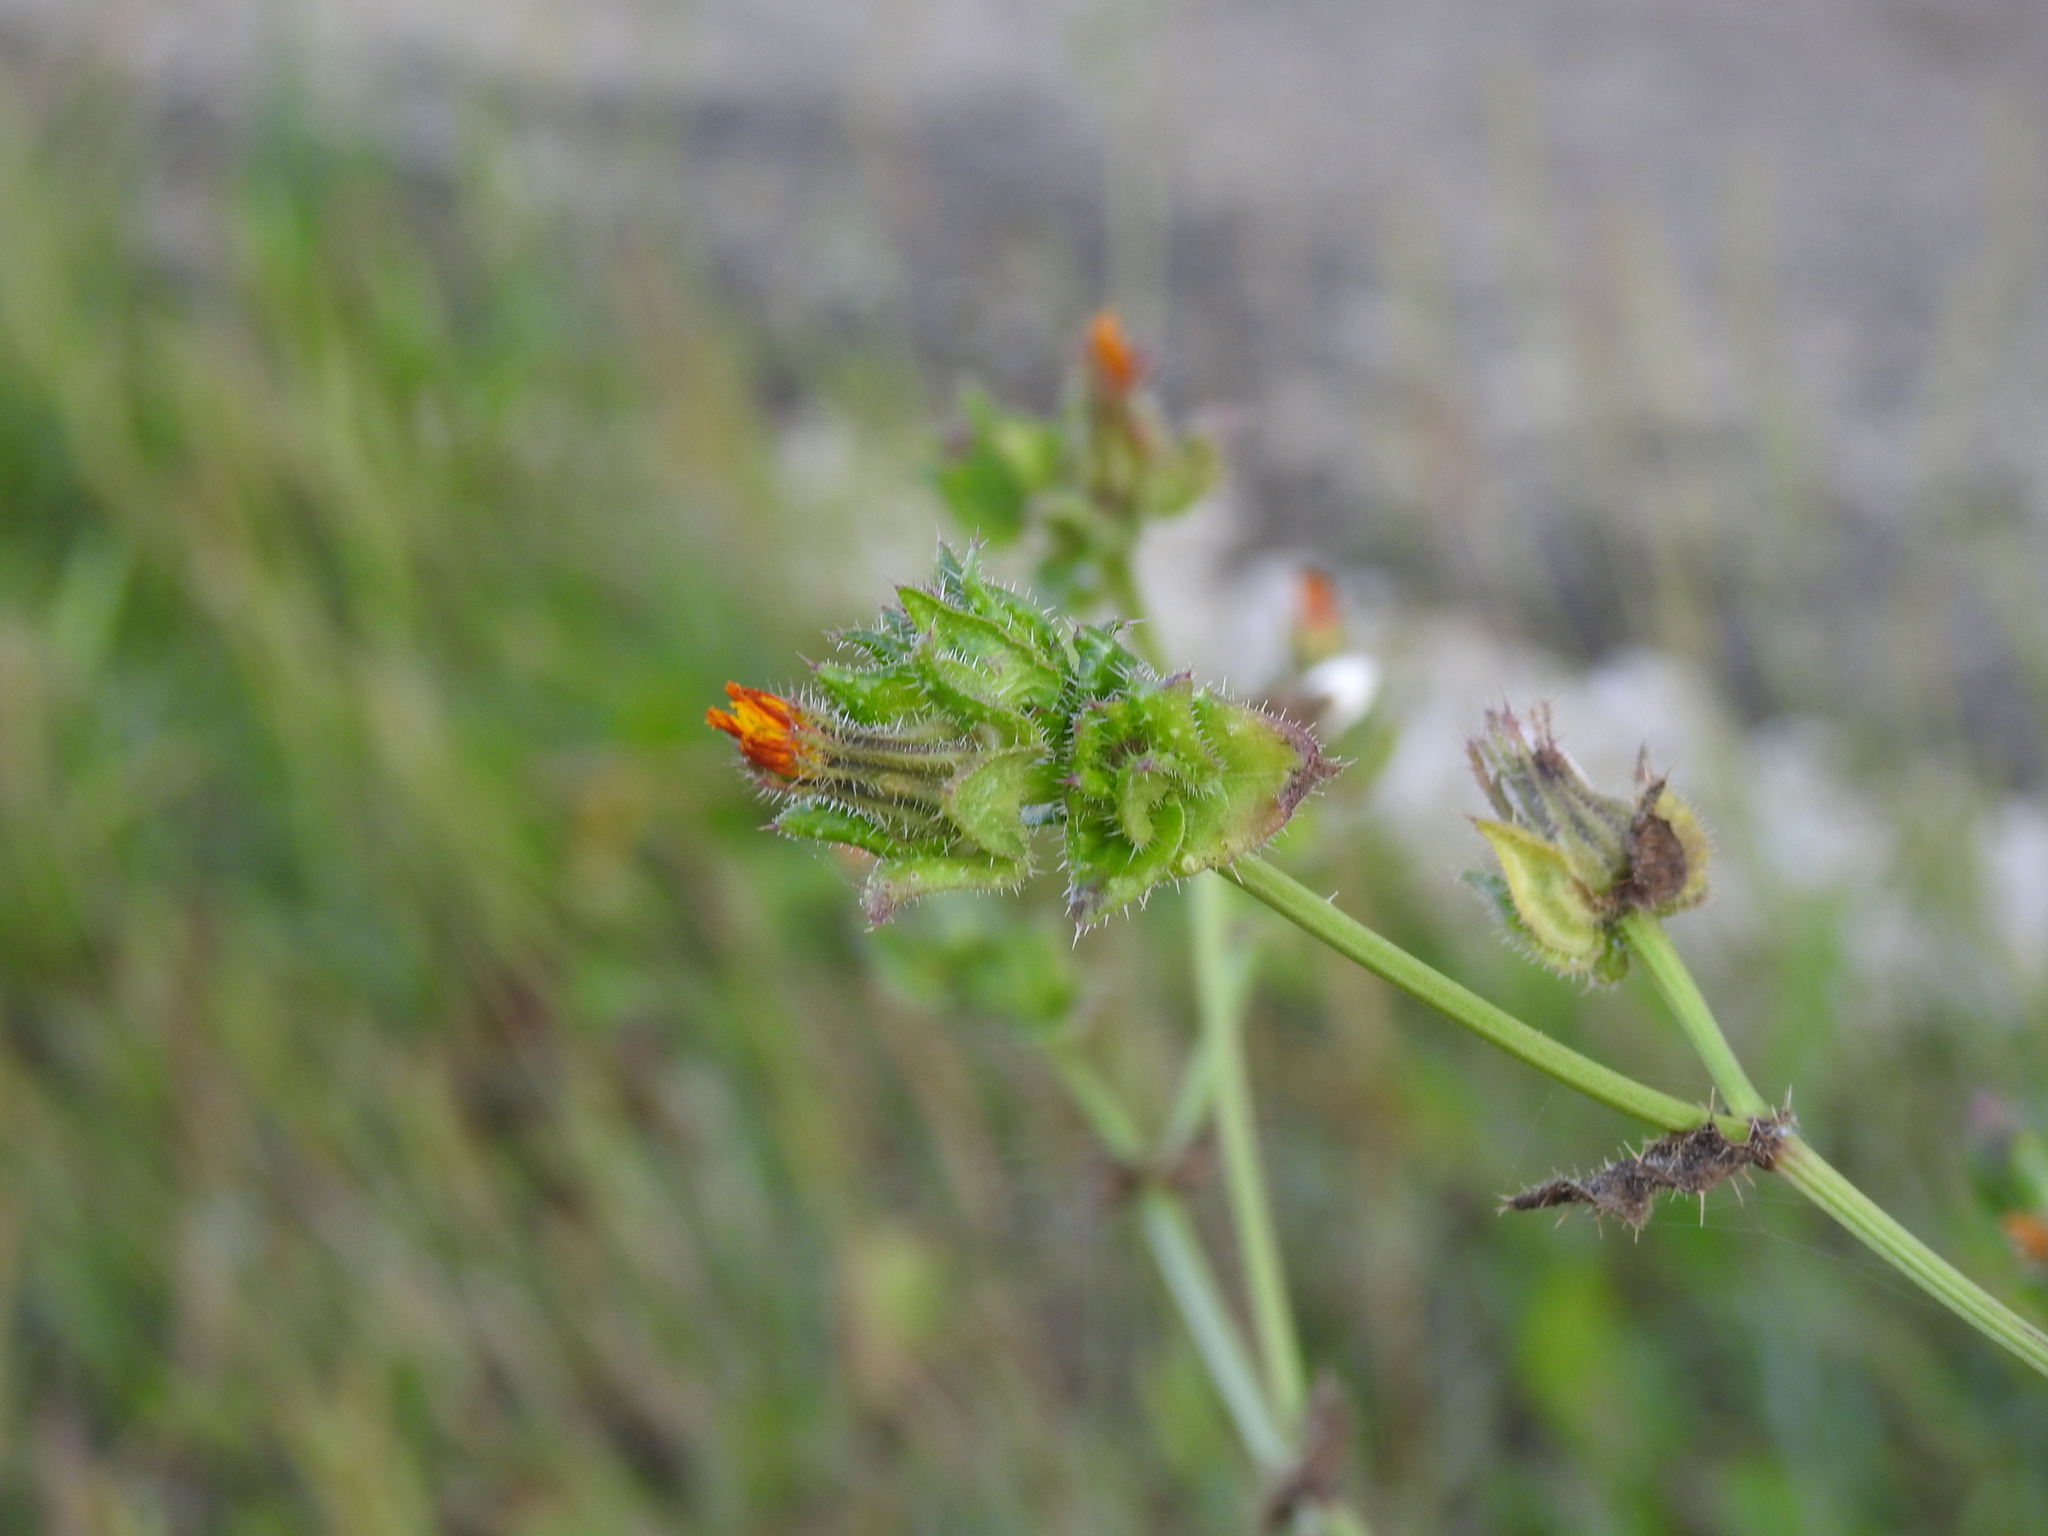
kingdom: Plantae
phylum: Tracheophyta
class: Magnoliopsida
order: Asterales
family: Asteraceae
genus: Helminthotheca
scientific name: Helminthotheca echioides
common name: Ox-tongue
